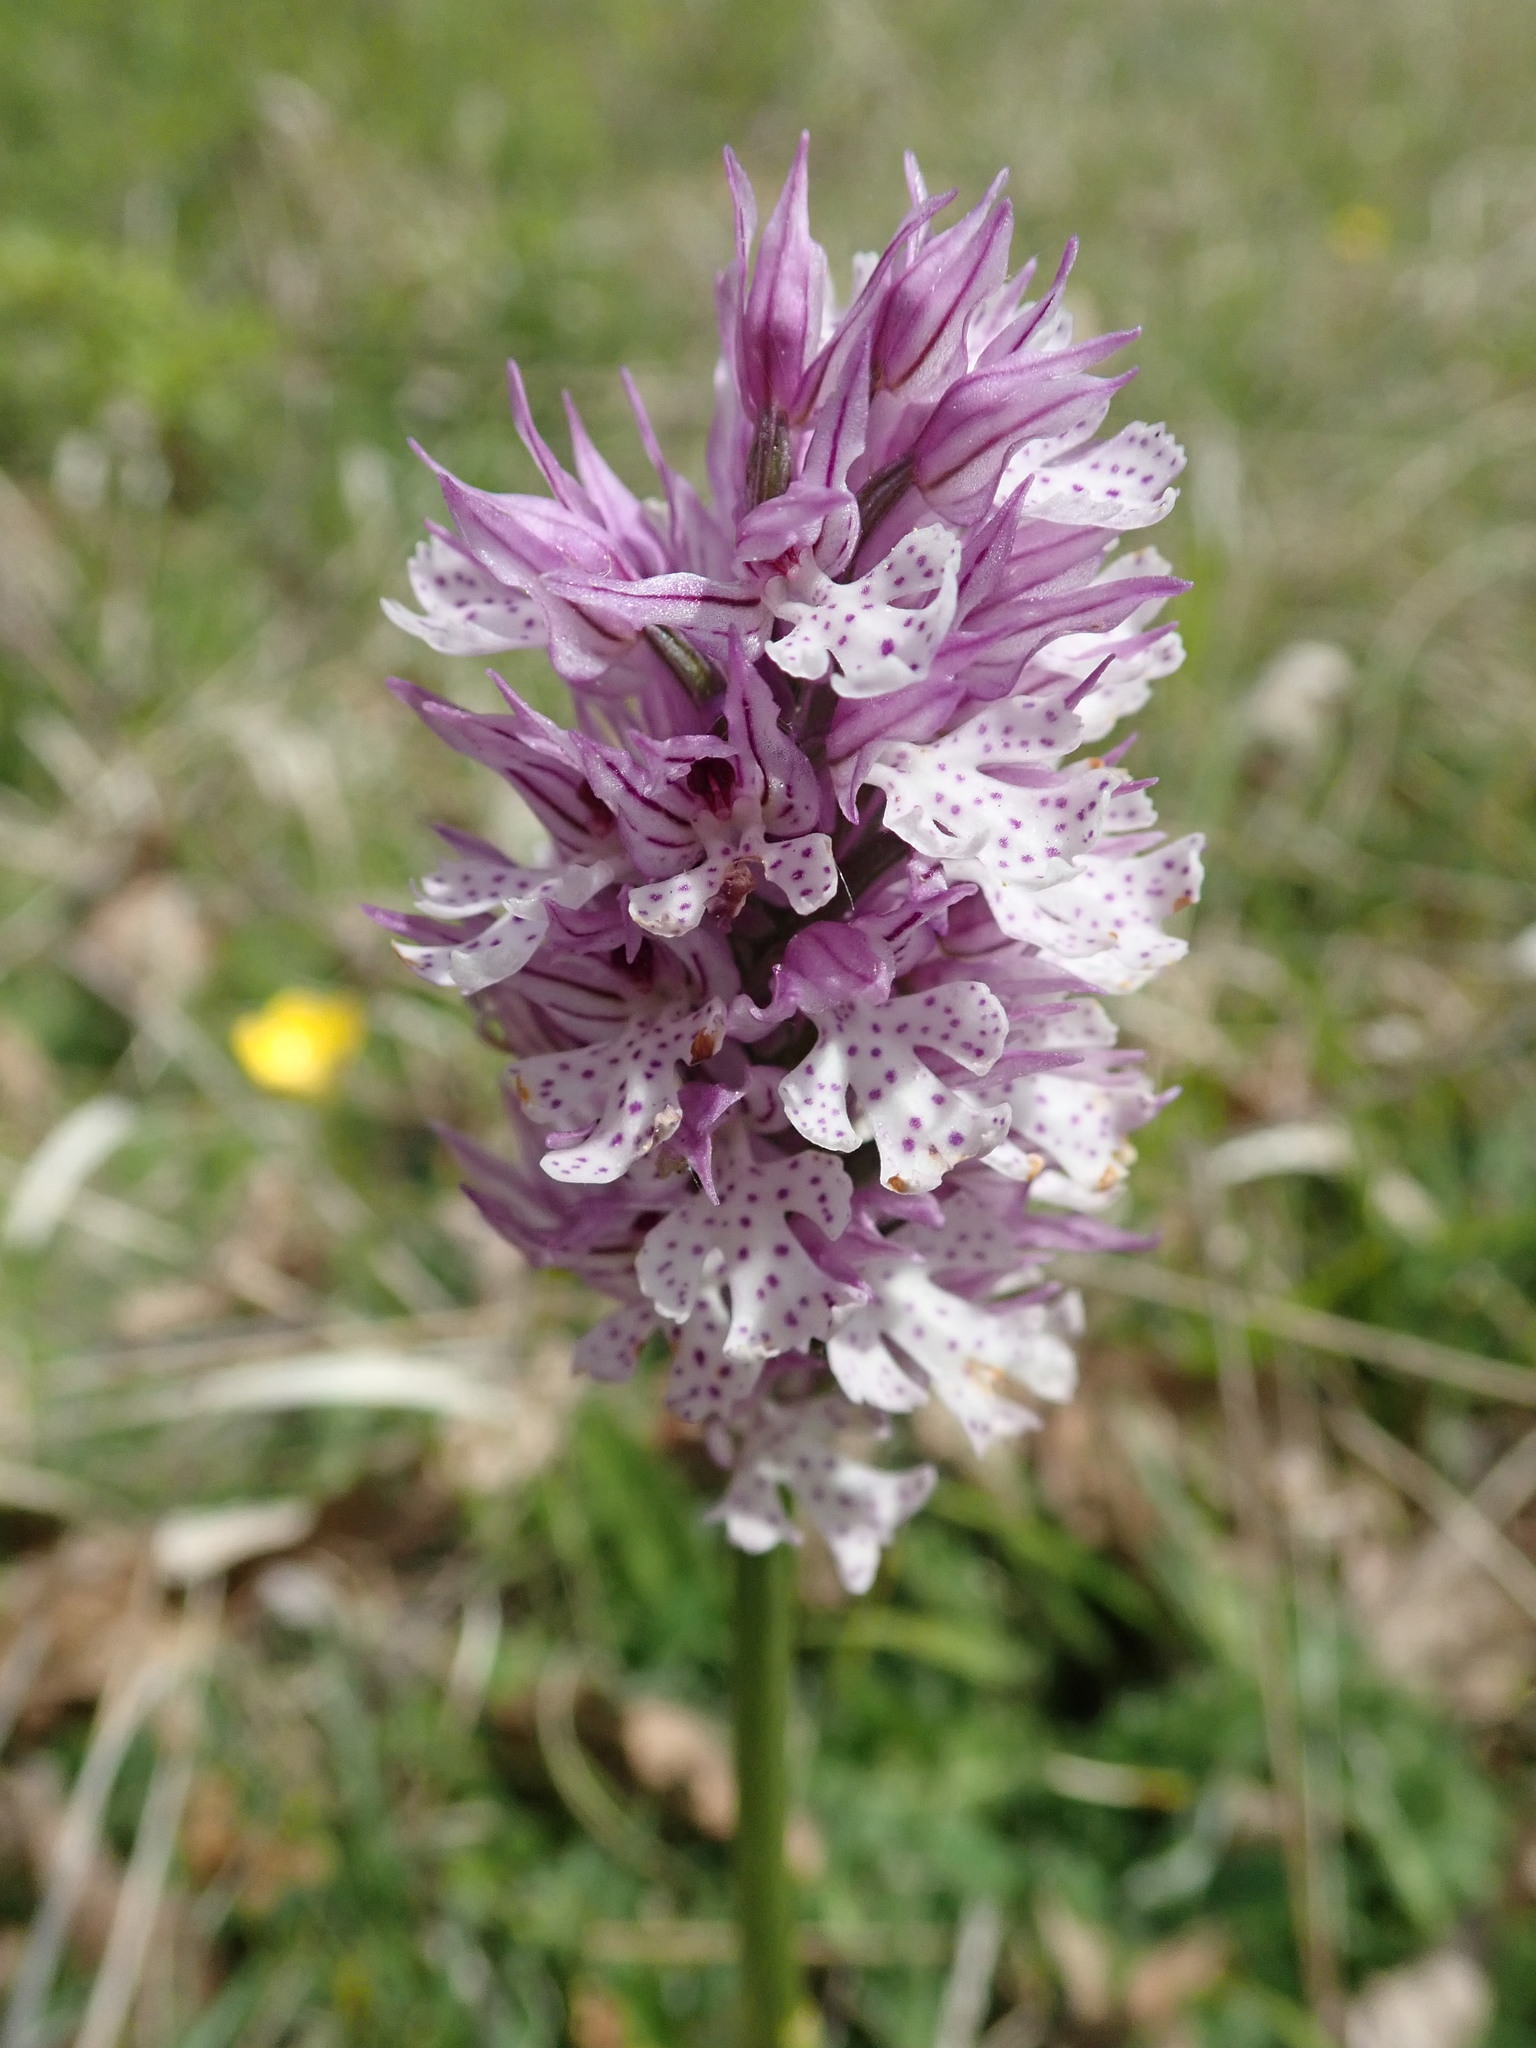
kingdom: Plantae
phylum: Tracheophyta
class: Liliopsida
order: Asparagales
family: Orchidaceae
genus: Neotinea
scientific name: Neotinea tridentata
